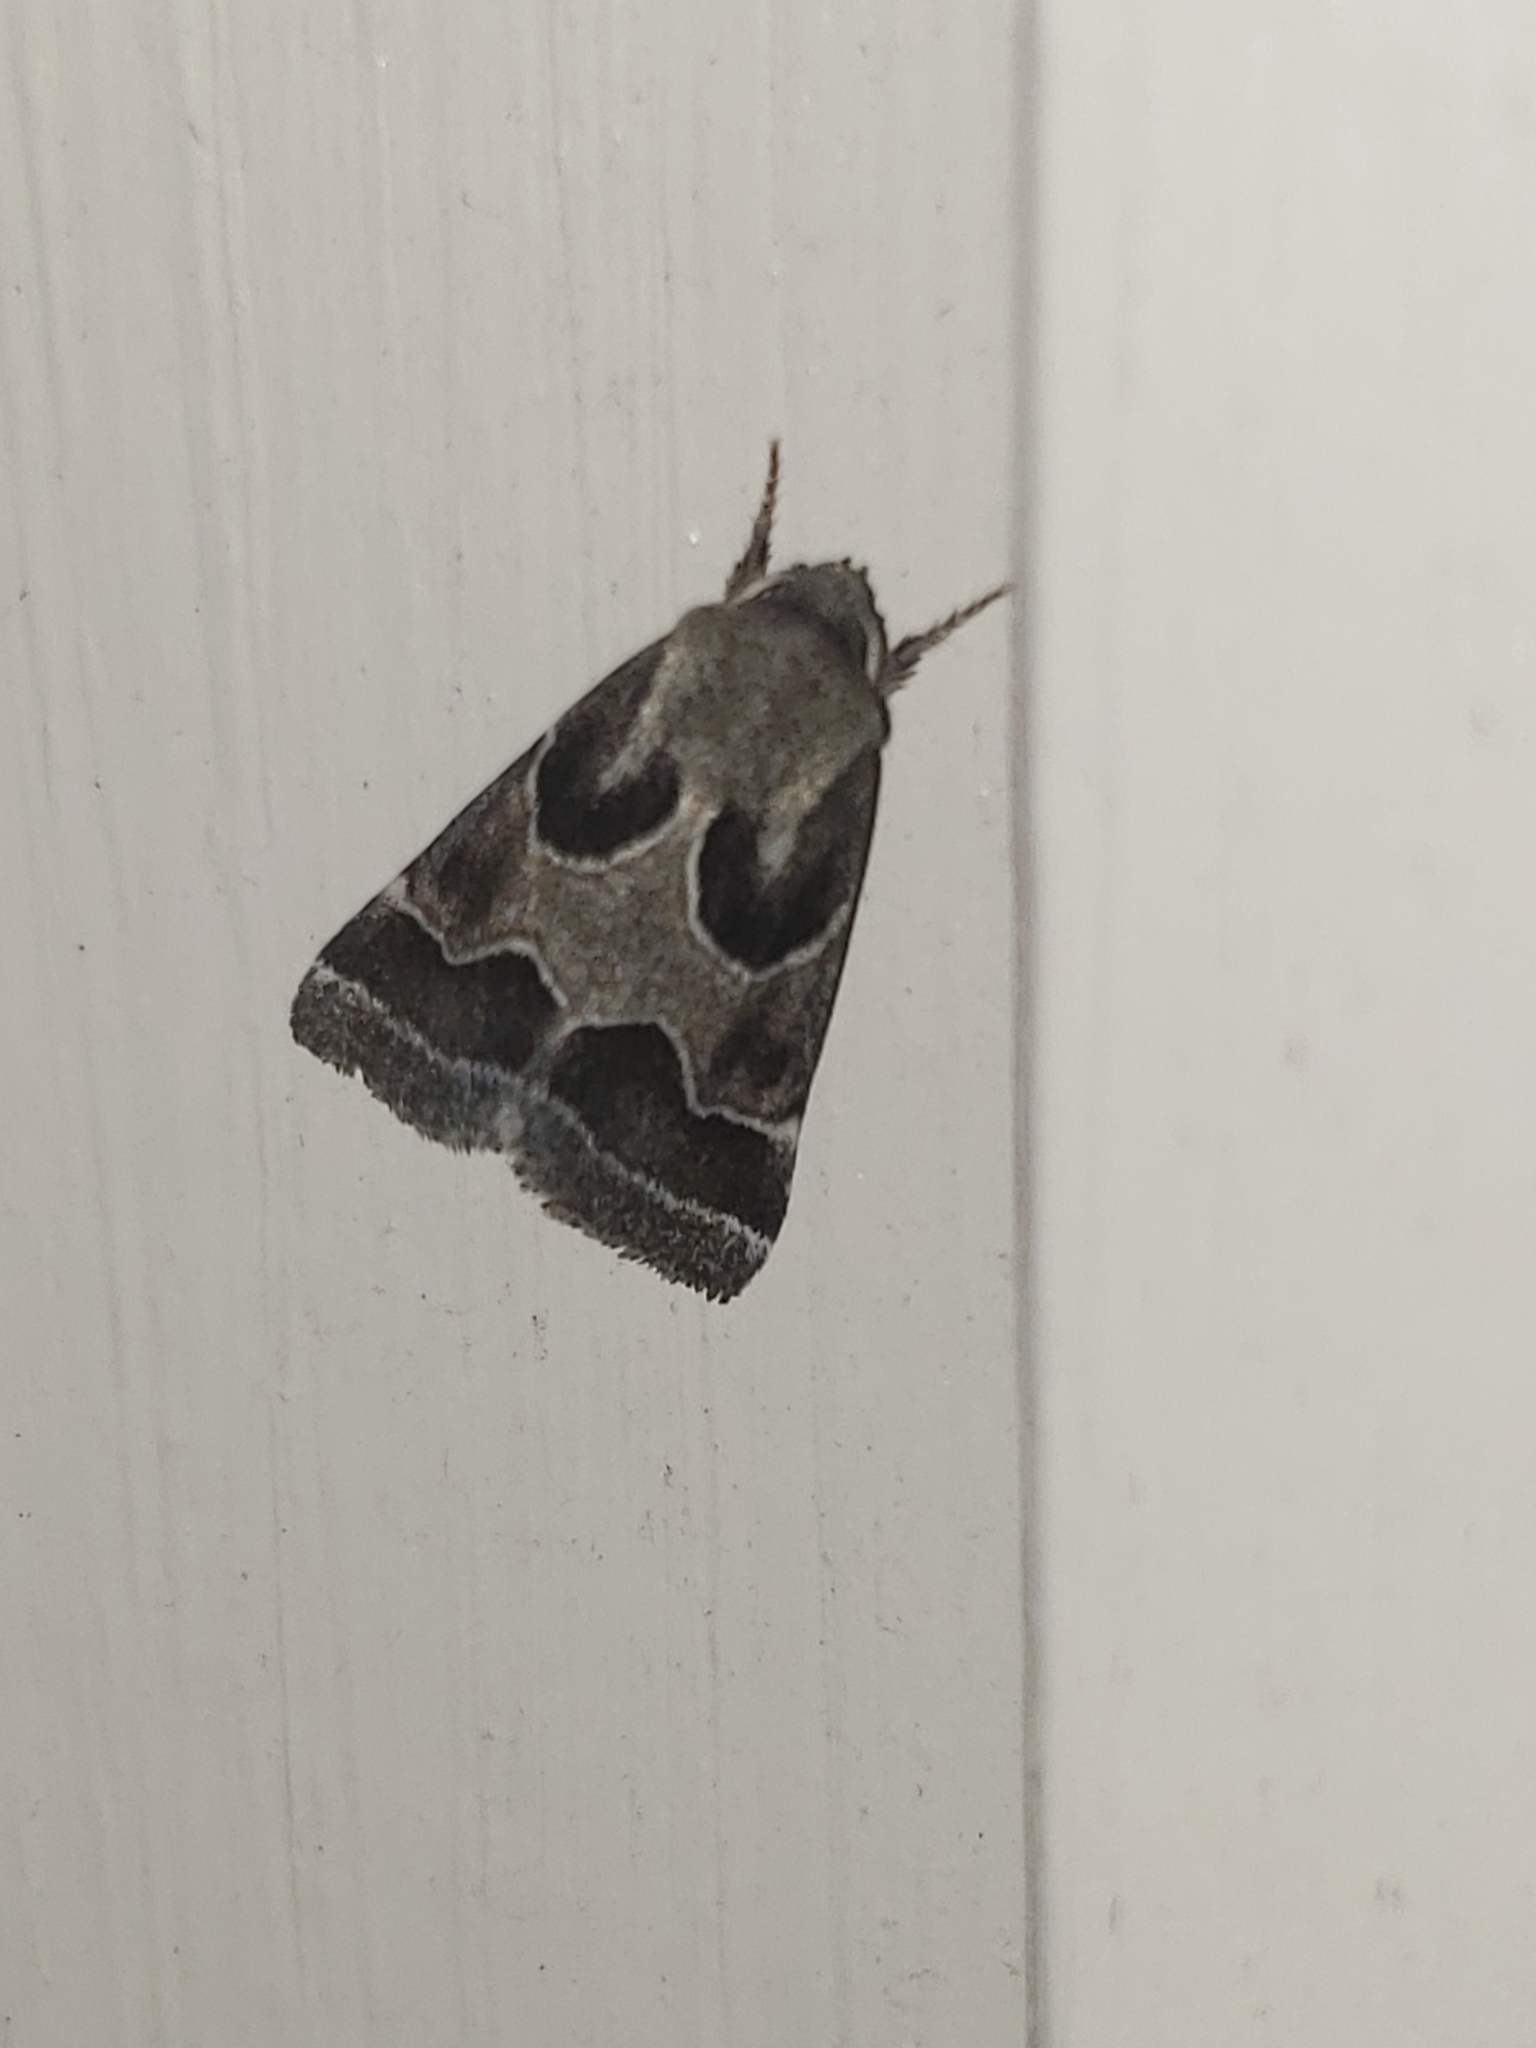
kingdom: Animalia
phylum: Arthropoda
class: Insecta
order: Lepidoptera
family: Noctuidae
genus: Schinia
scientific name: Schinia rivulosa
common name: Scarce meal-moth
